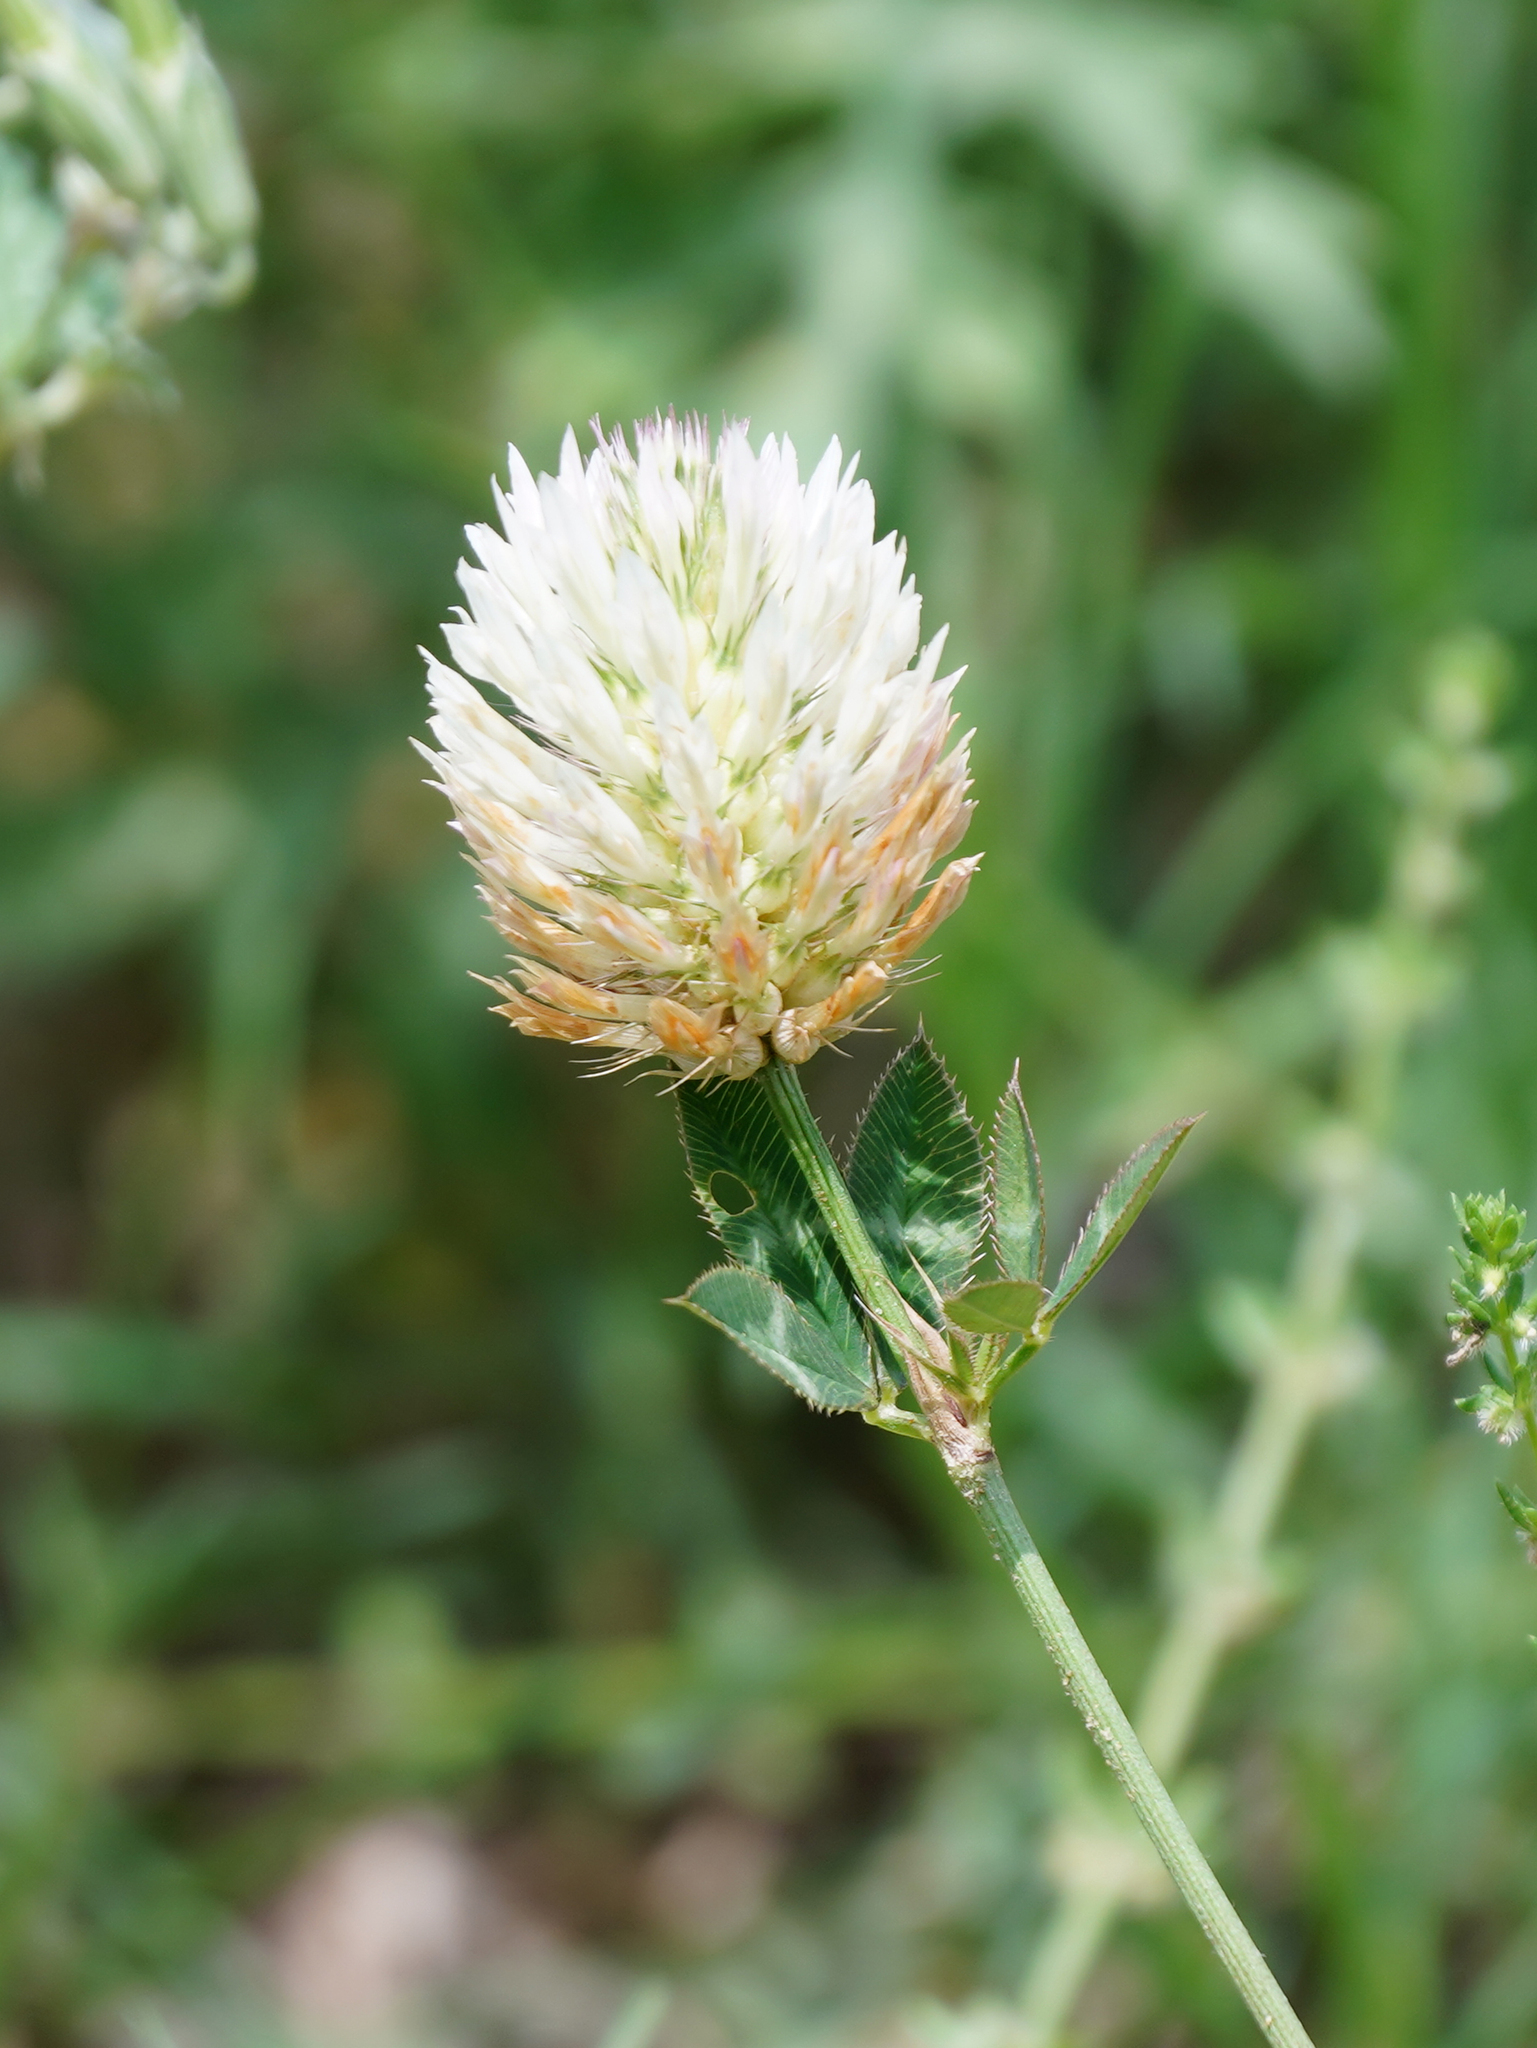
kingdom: Plantae
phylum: Tracheophyta
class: Magnoliopsida
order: Fabales
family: Fabaceae
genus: Trifolium
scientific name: Trifolium vesiculosum
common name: Arrowleaf clover
